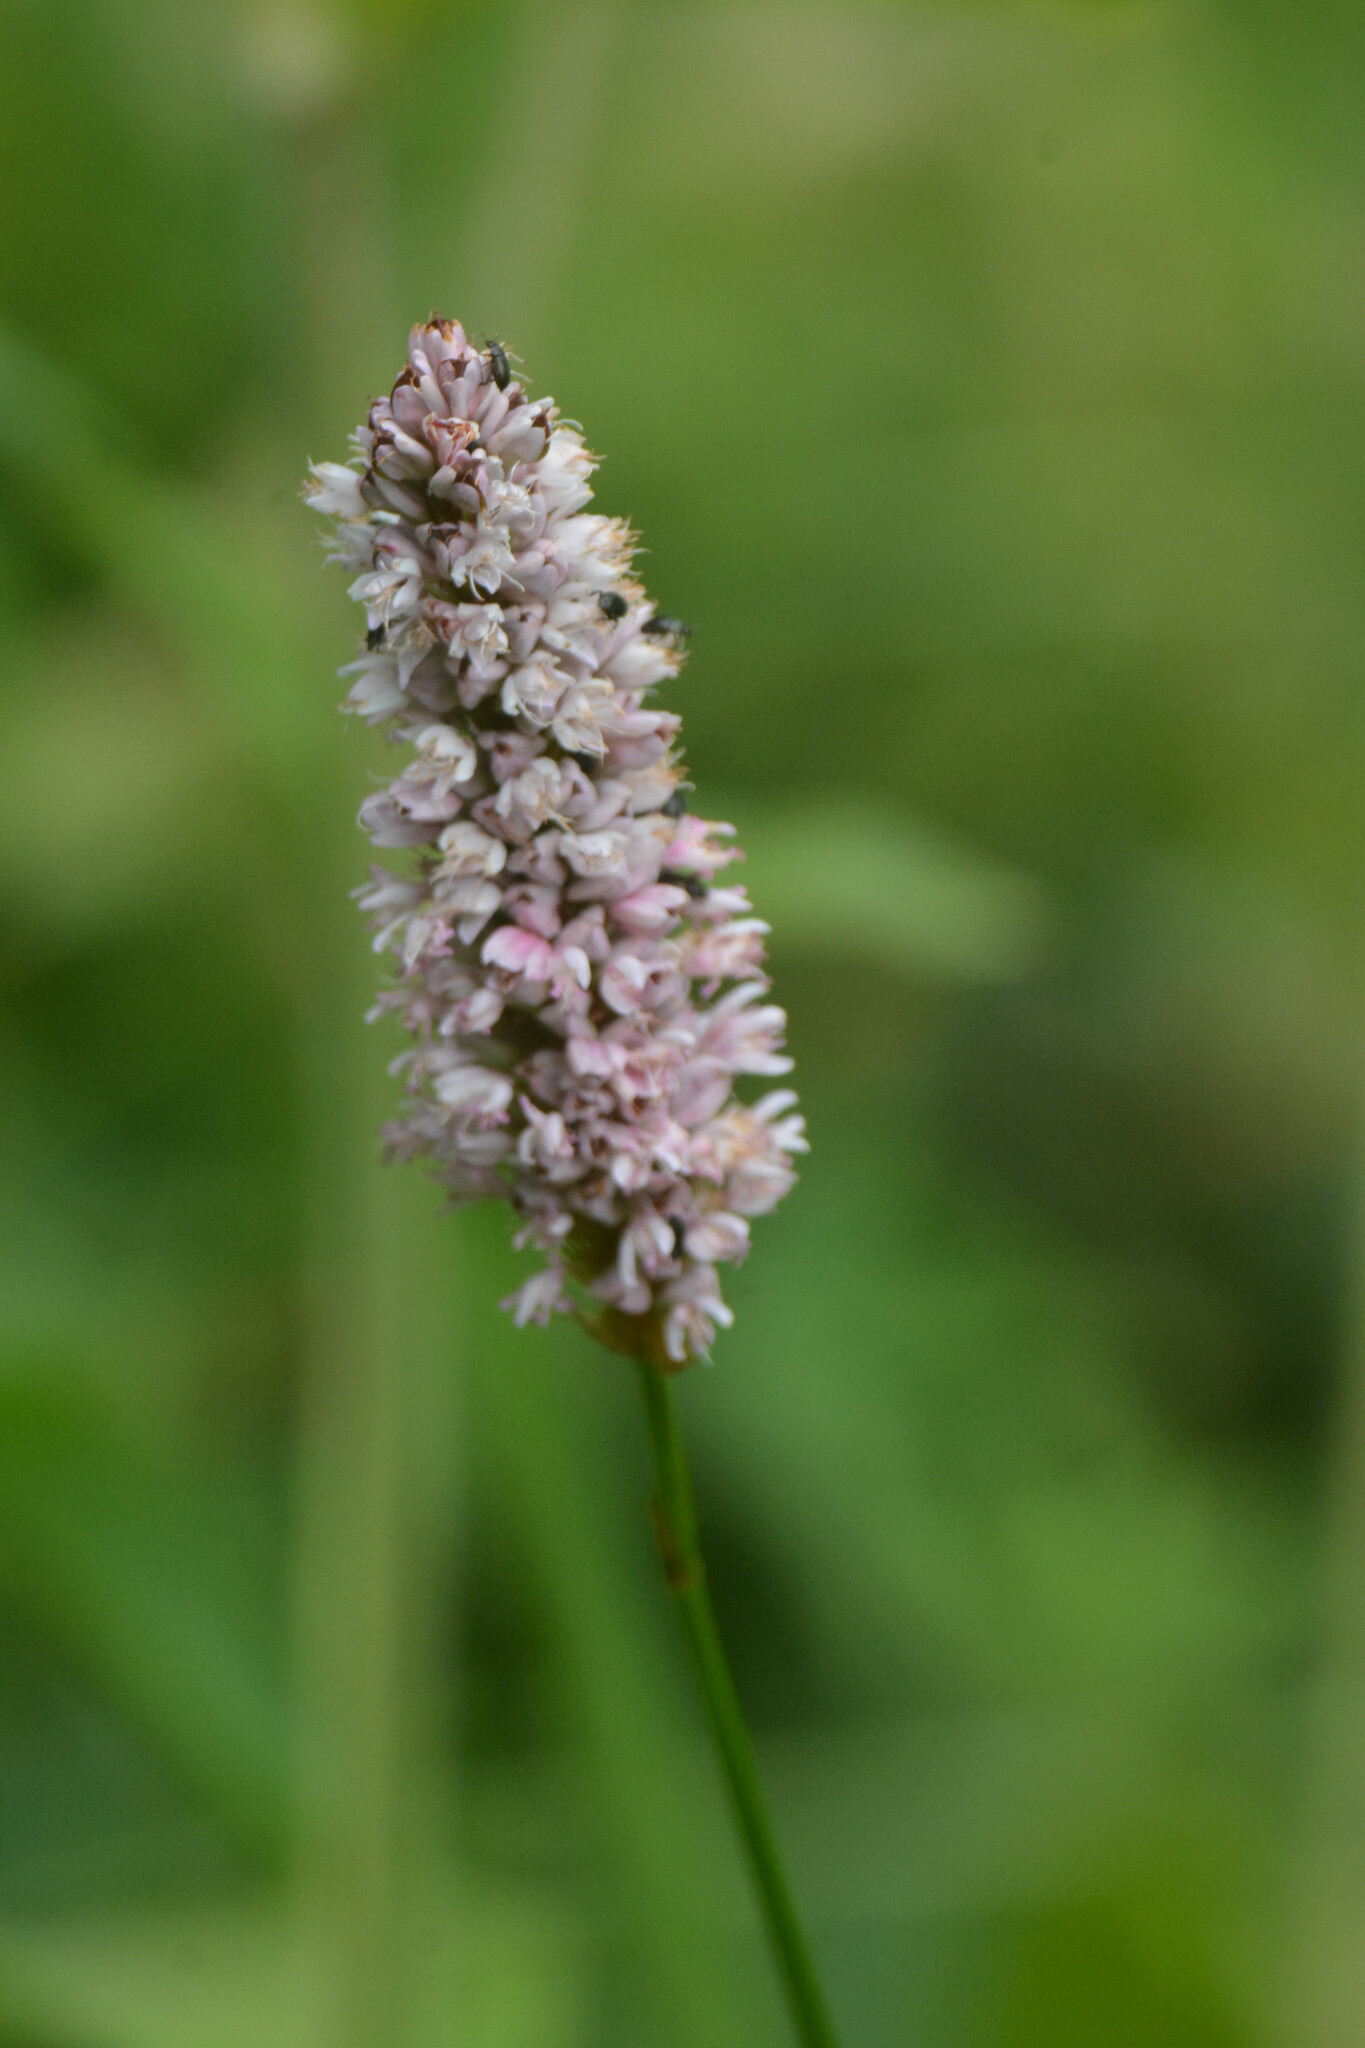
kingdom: Plantae
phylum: Tracheophyta
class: Magnoliopsida
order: Caryophyllales
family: Polygonaceae
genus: Bistorta
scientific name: Bistorta officinalis
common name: Common bistort
